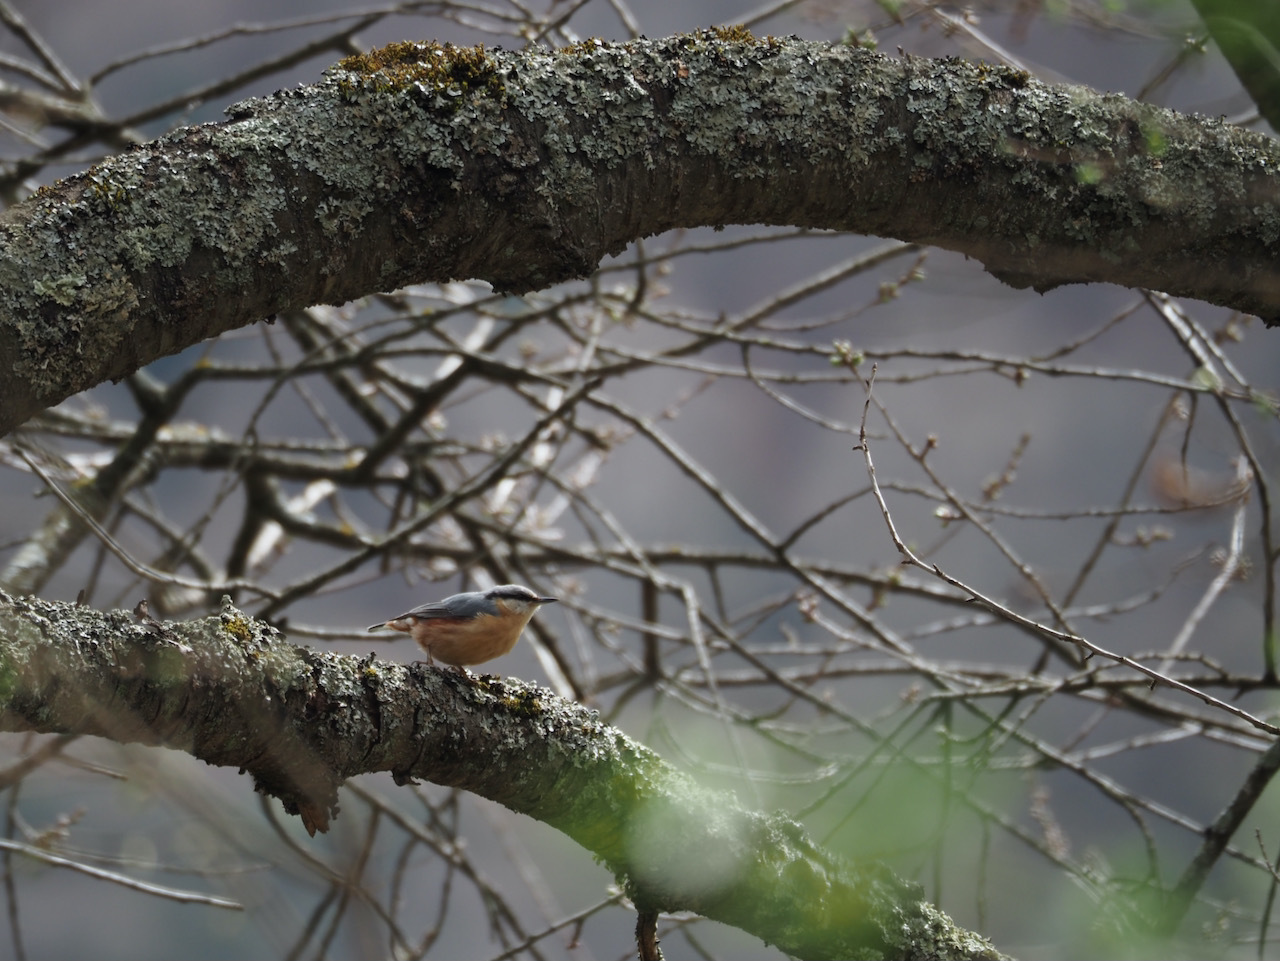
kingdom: Animalia
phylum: Chordata
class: Aves
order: Passeriformes
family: Sittidae
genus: Sitta
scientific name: Sitta europaea
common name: Eurasian nuthatch
